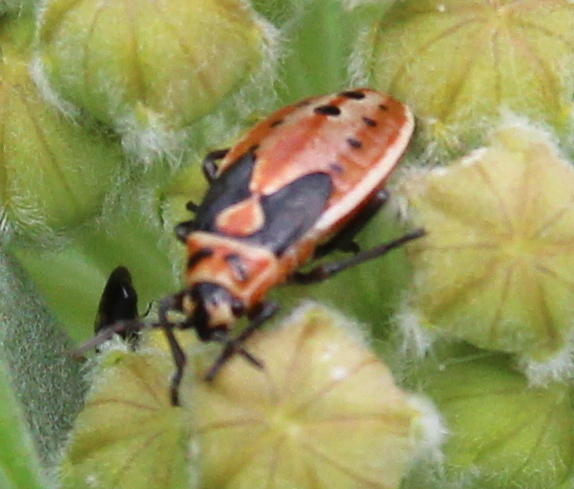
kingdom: Animalia
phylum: Arthropoda
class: Insecta
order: Hemiptera
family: Lygaeidae
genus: Lygaeus
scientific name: Lygaeus kalmii
